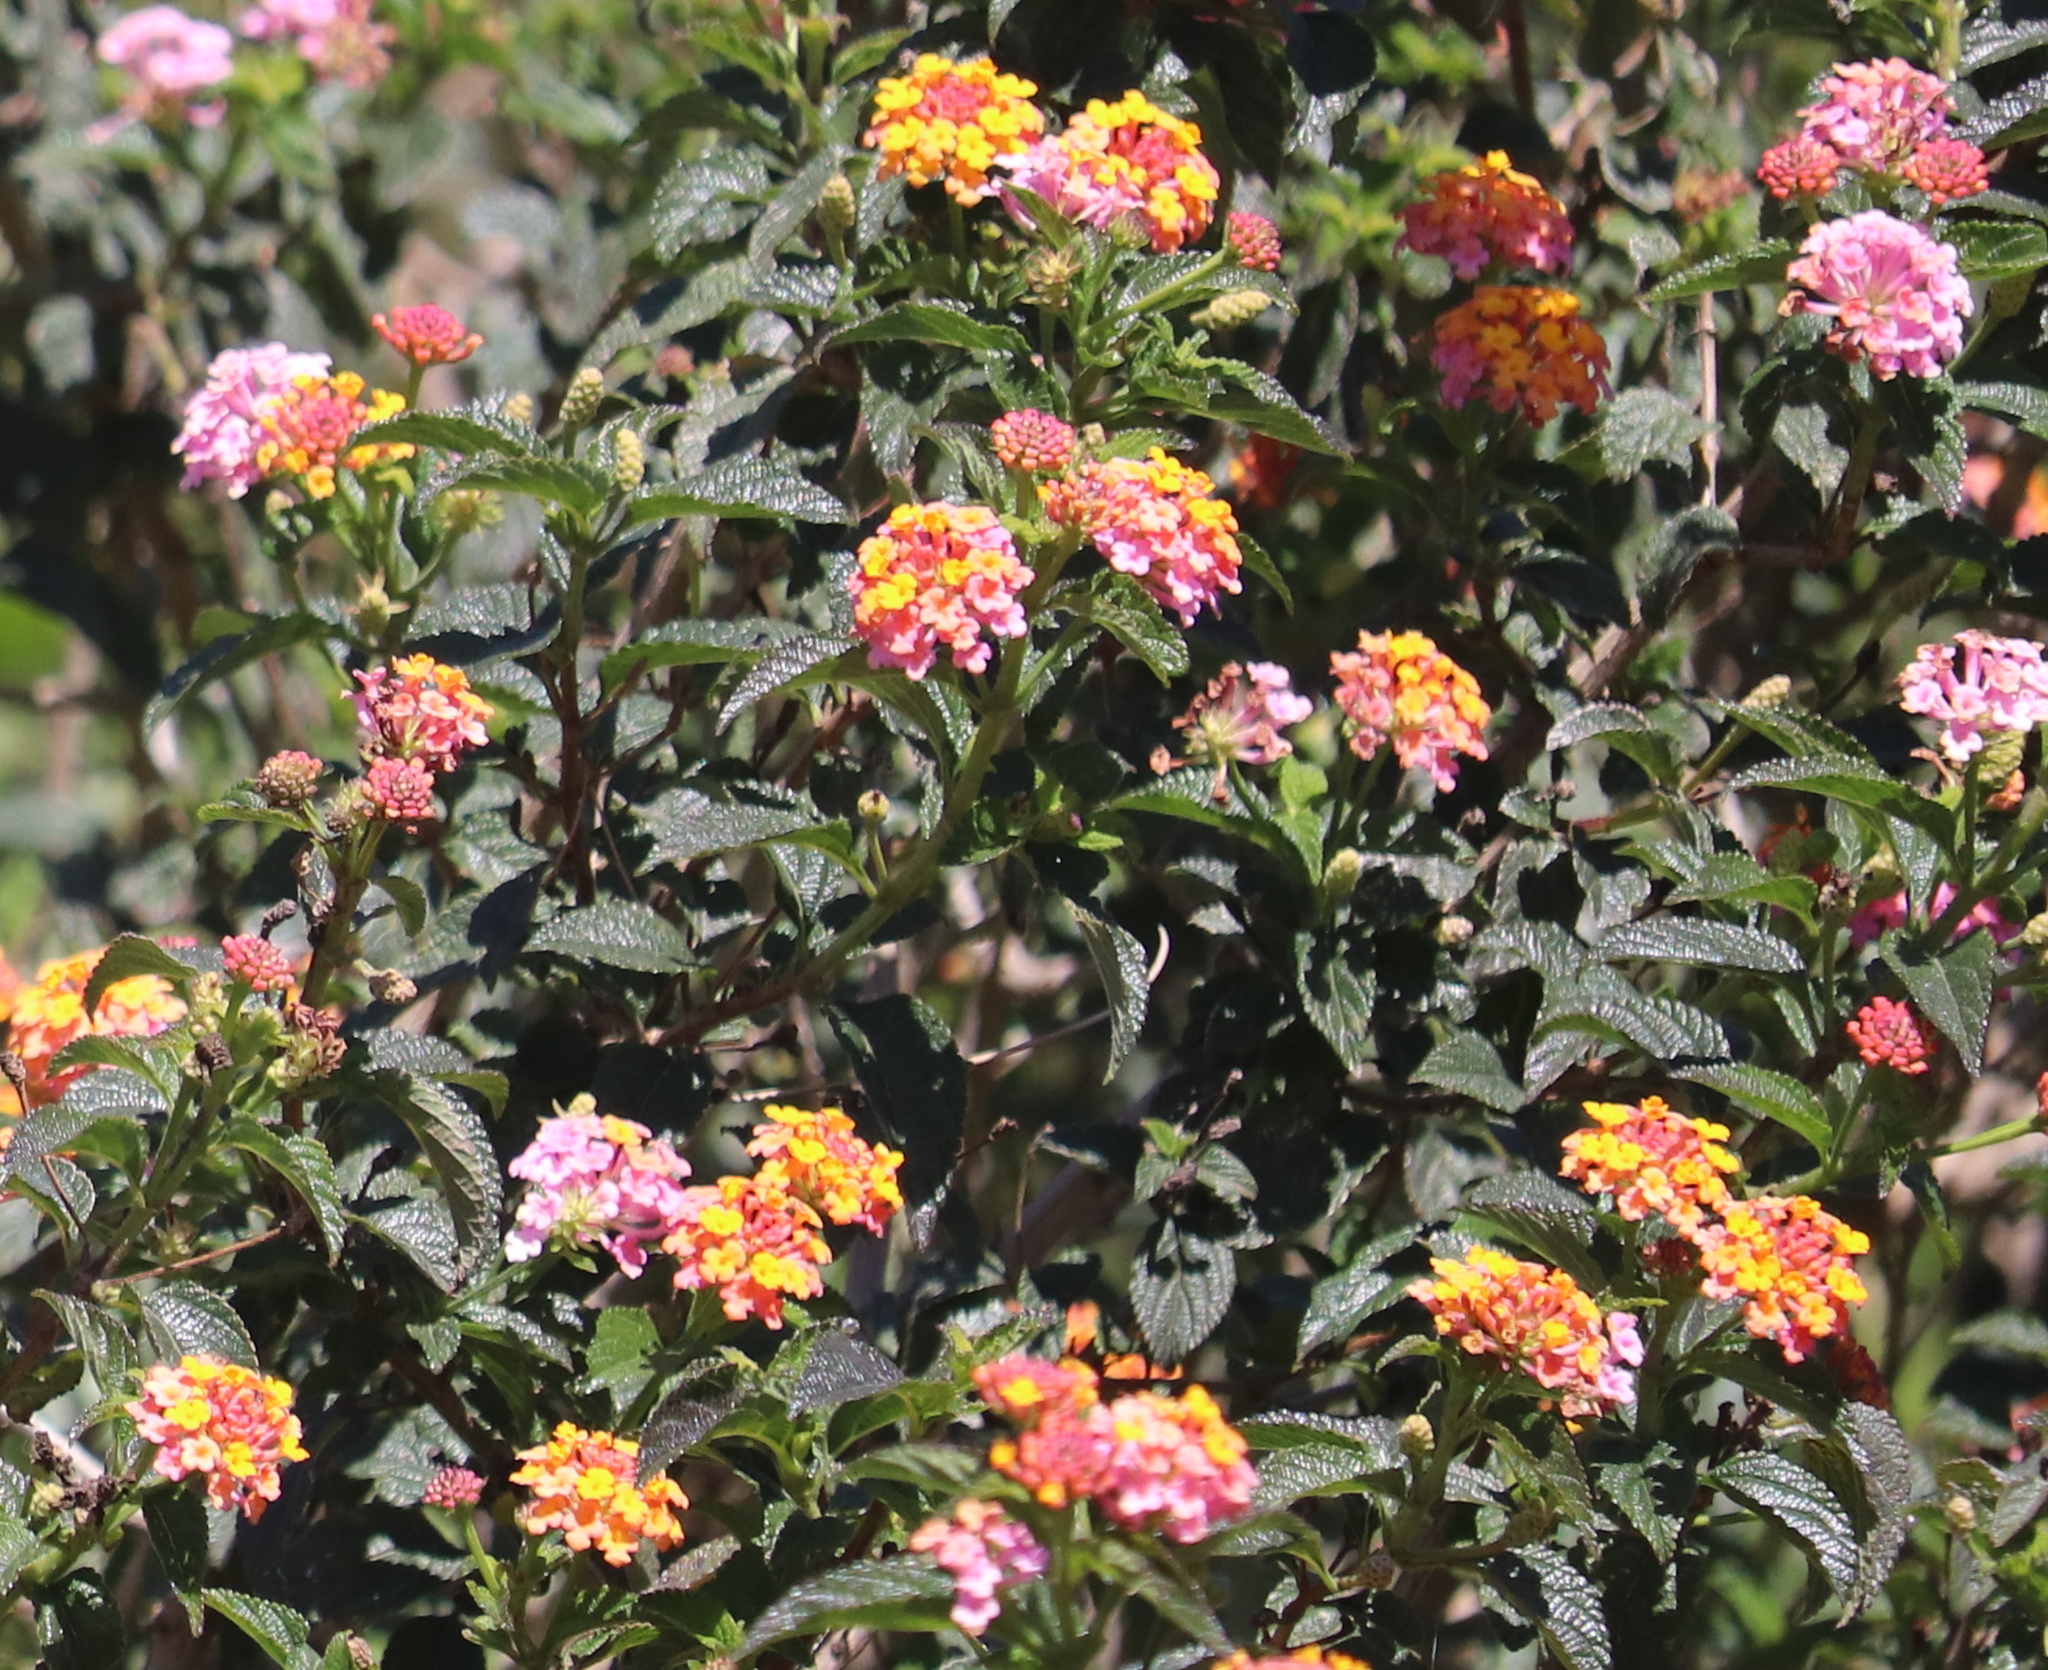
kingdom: Plantae
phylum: Tracheophyta
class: Magnoliopsida
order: Lamiales
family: Verbenaceae
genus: Lantana
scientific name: Lantana camara
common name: Lantana
